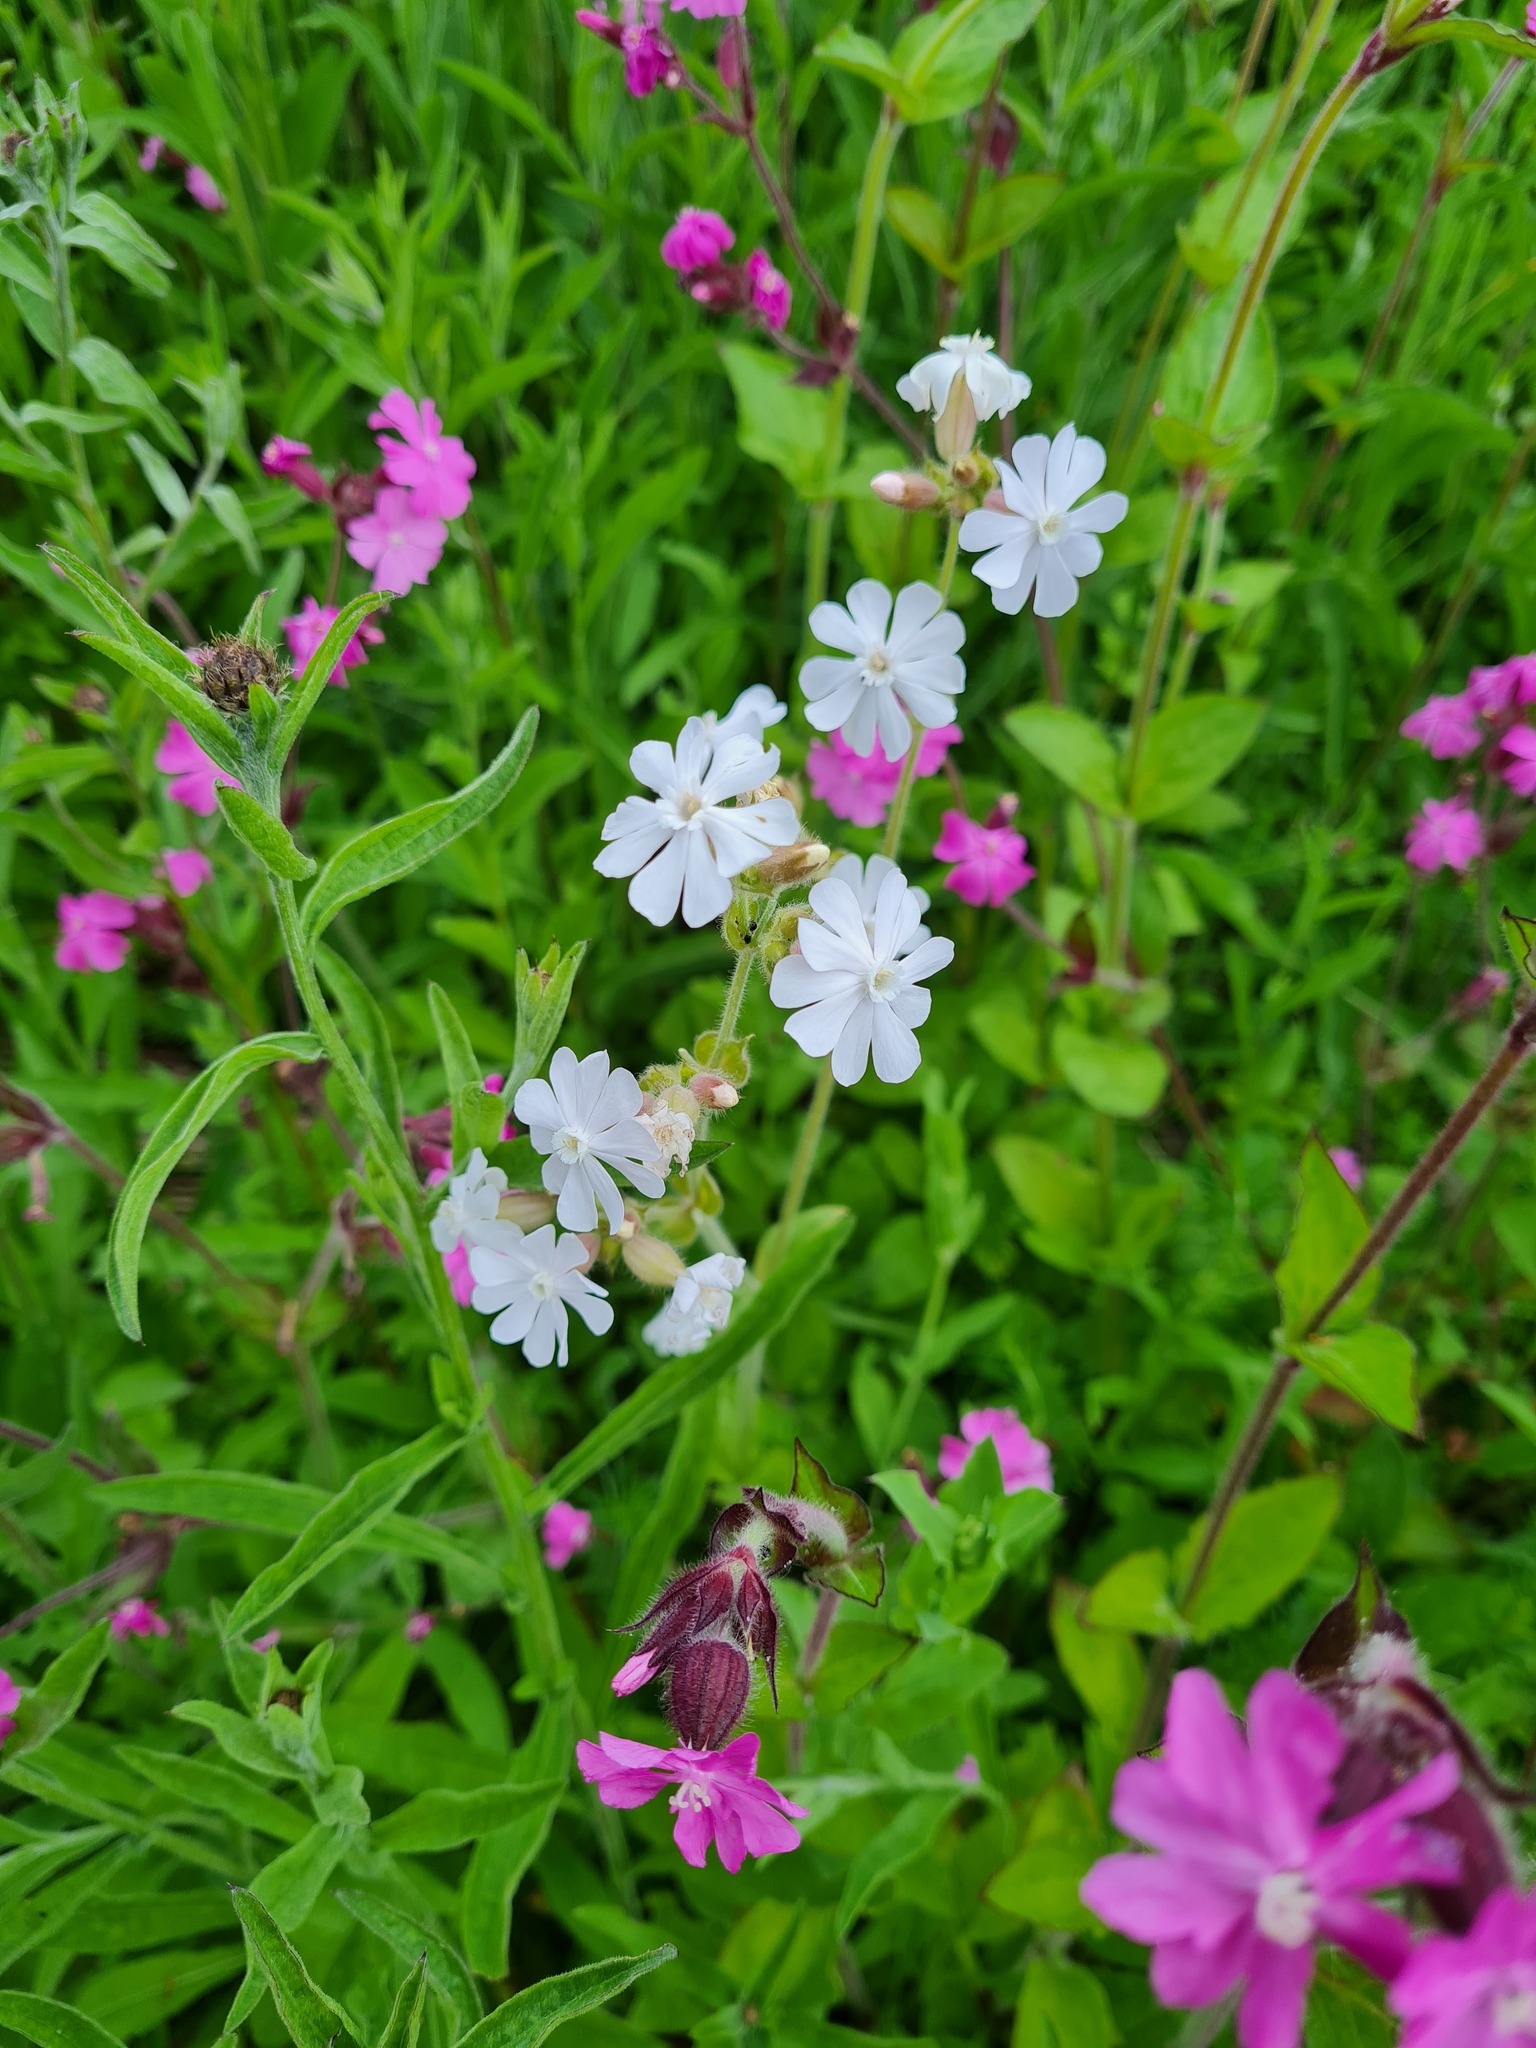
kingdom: Plantae
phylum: Tracheophyta
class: Magnoliopsida
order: Caryophyllales
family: Caryophyllaceae
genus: Silene
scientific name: Silene latifolia
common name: White campion
